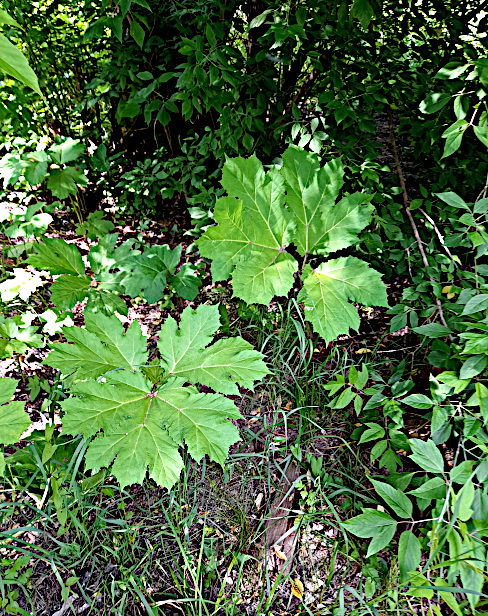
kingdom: Plantae
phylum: Tracheophyta
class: Magnoliopsida
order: Apiales
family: Apiaceae
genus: Heracleum
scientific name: Heracleum sosnowskyi
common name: Sosnowsky's hogweed
